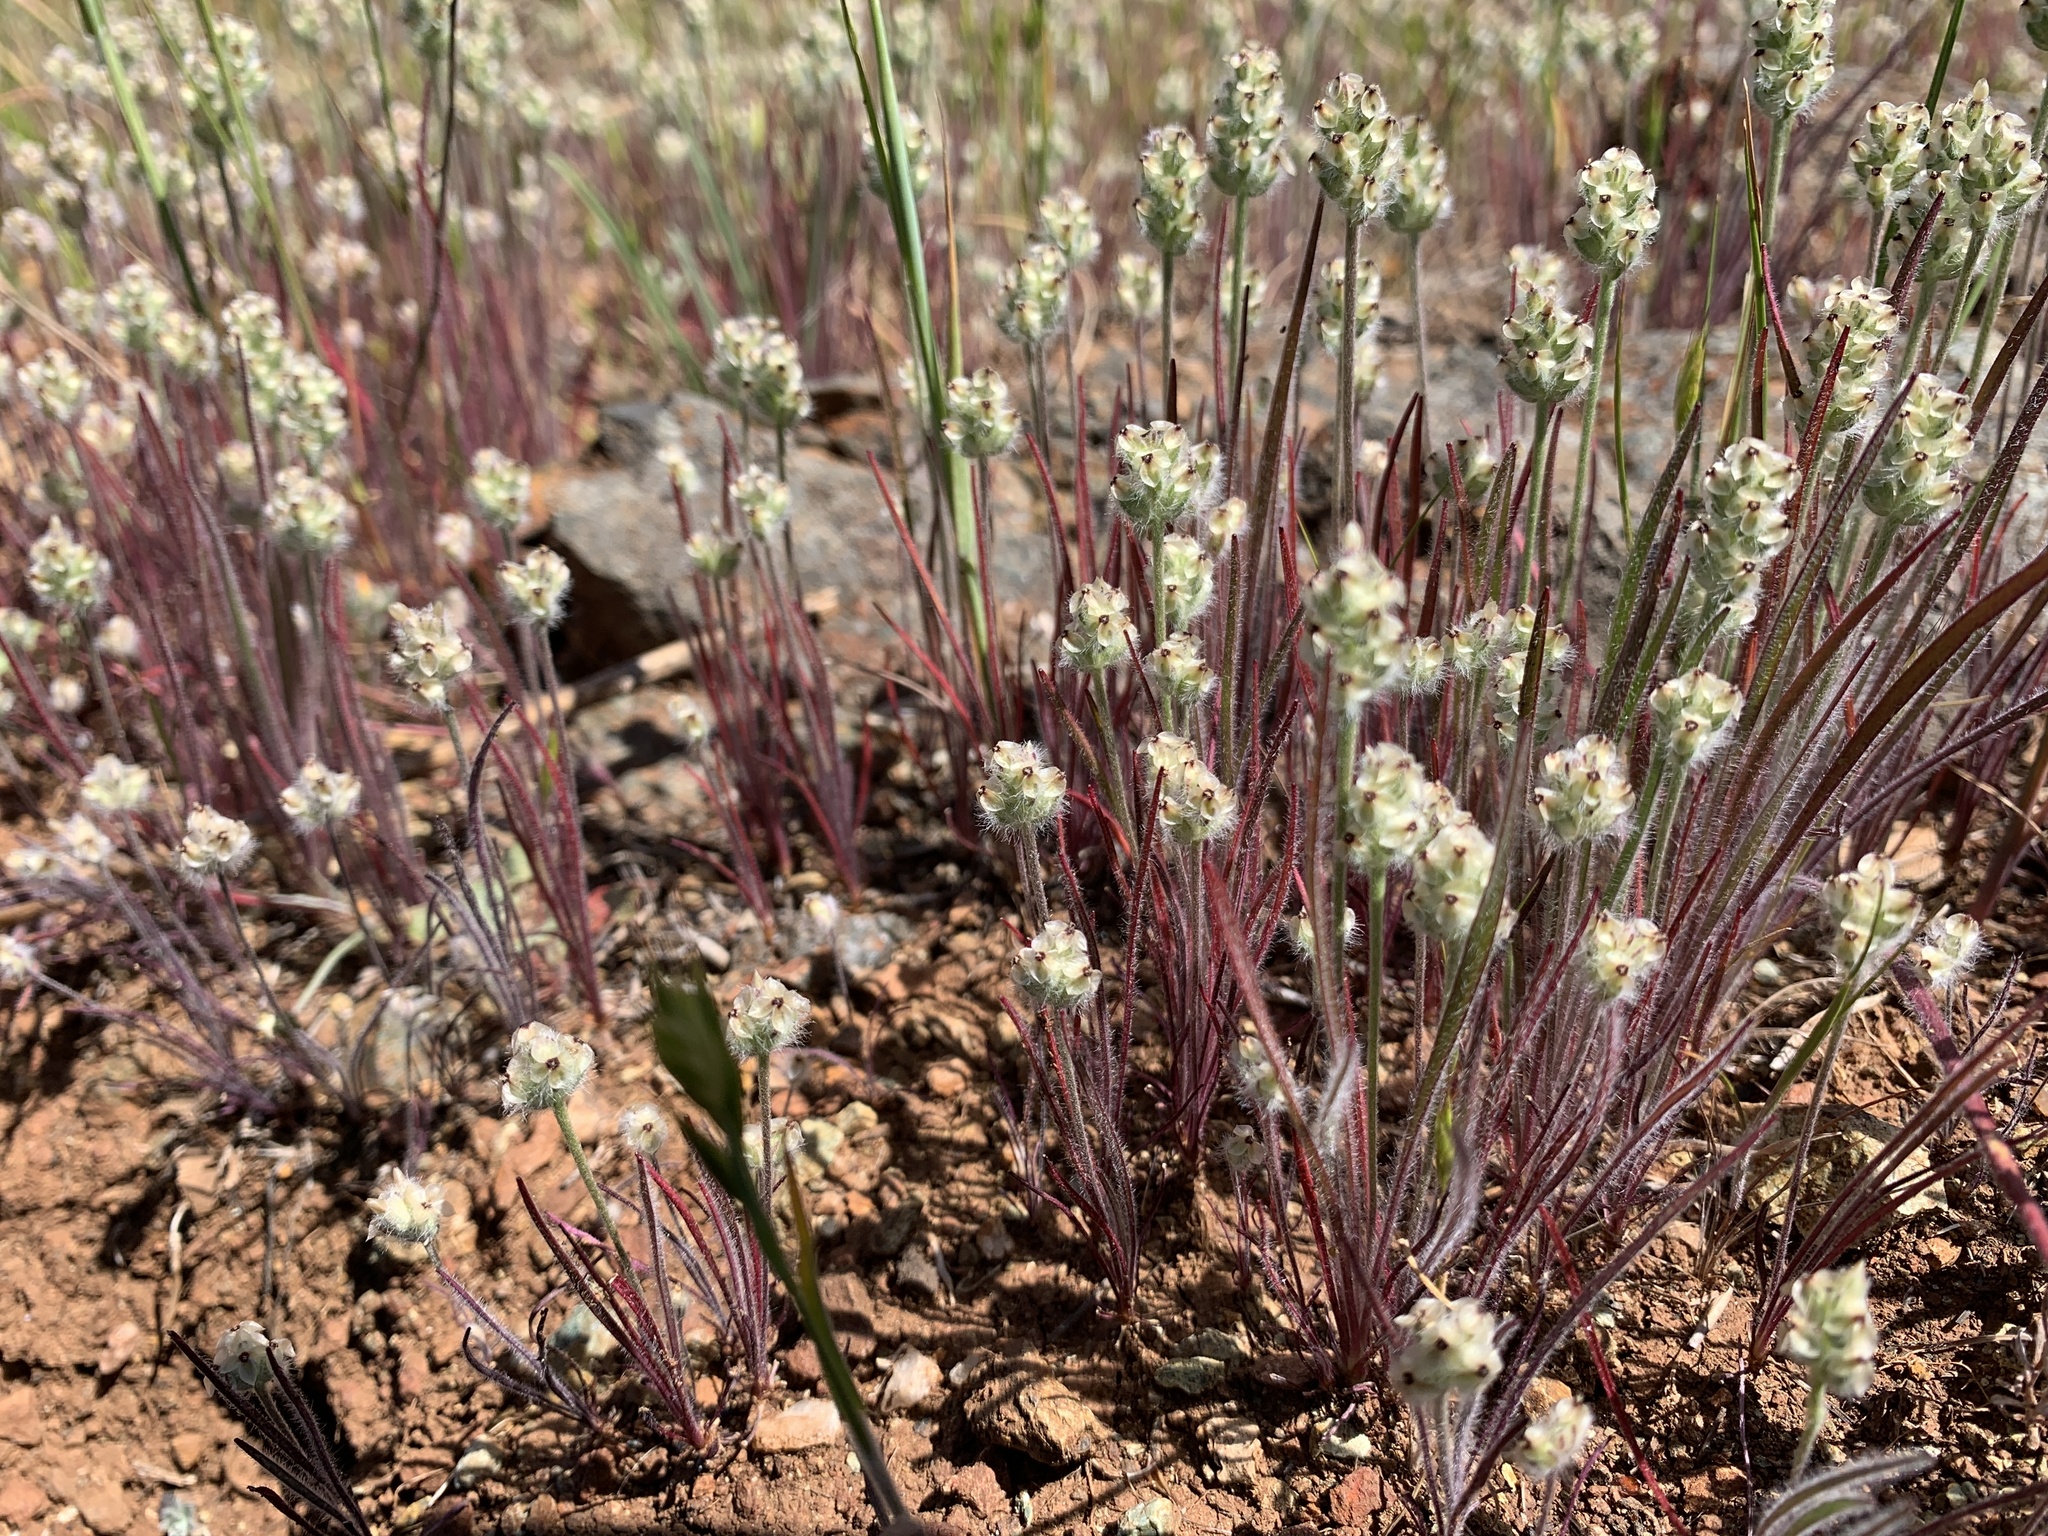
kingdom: Plantae
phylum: Tracheophyta
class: Magnoliopsida
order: Lamiales
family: Plantaginaceae
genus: Plantago
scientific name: Plantago erecta
